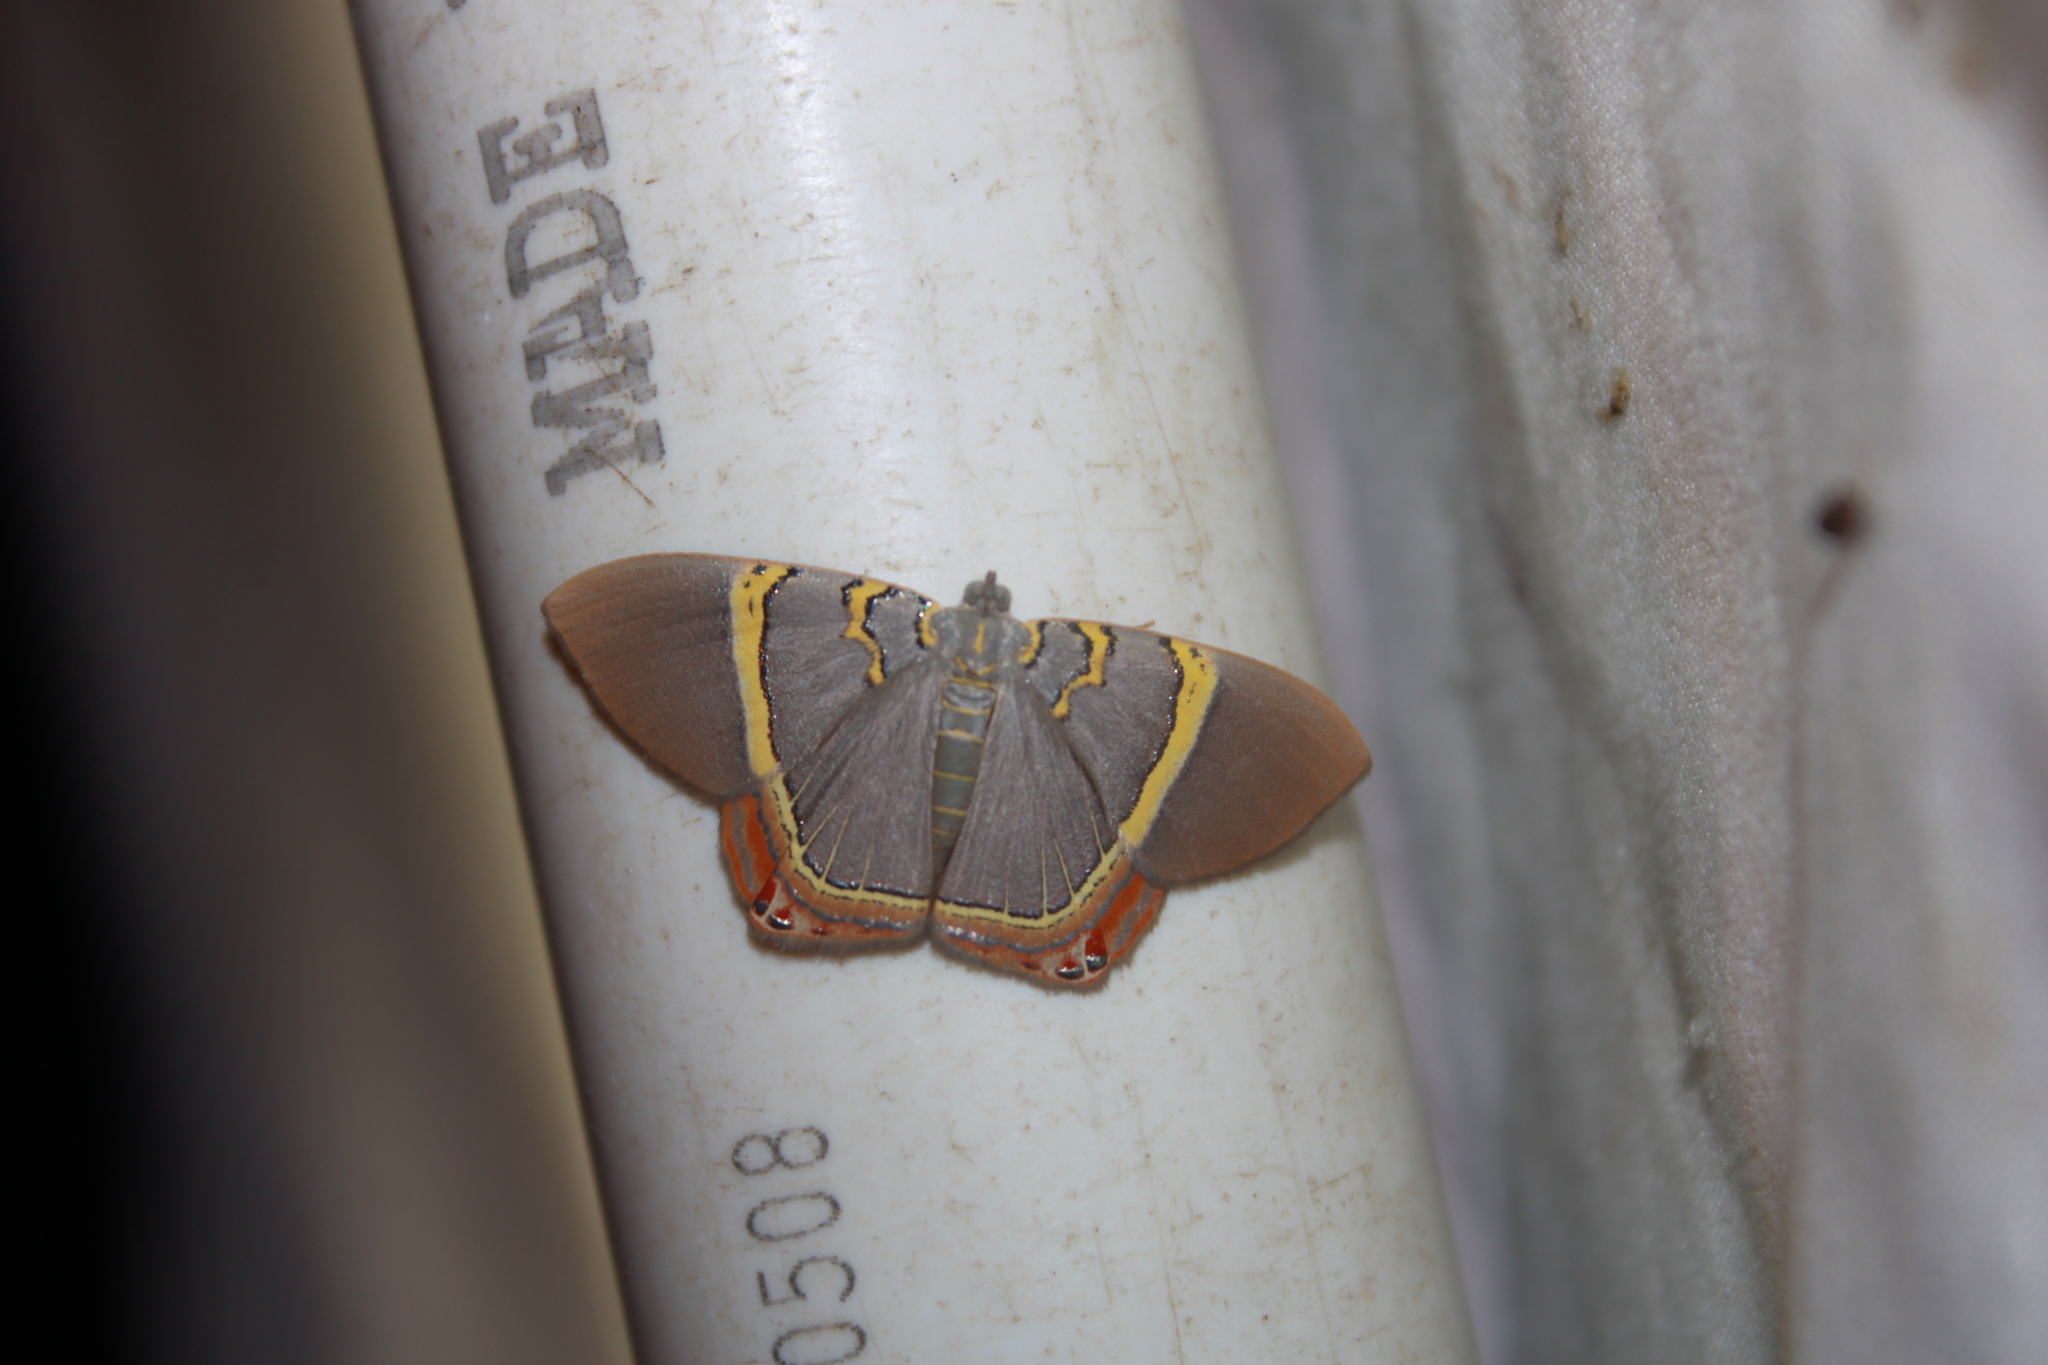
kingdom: Animalia
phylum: Arthropoda
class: Insecta
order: Lepidoptera
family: Geometridae
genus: Phrygionis
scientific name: Phrygionis paradoxata
